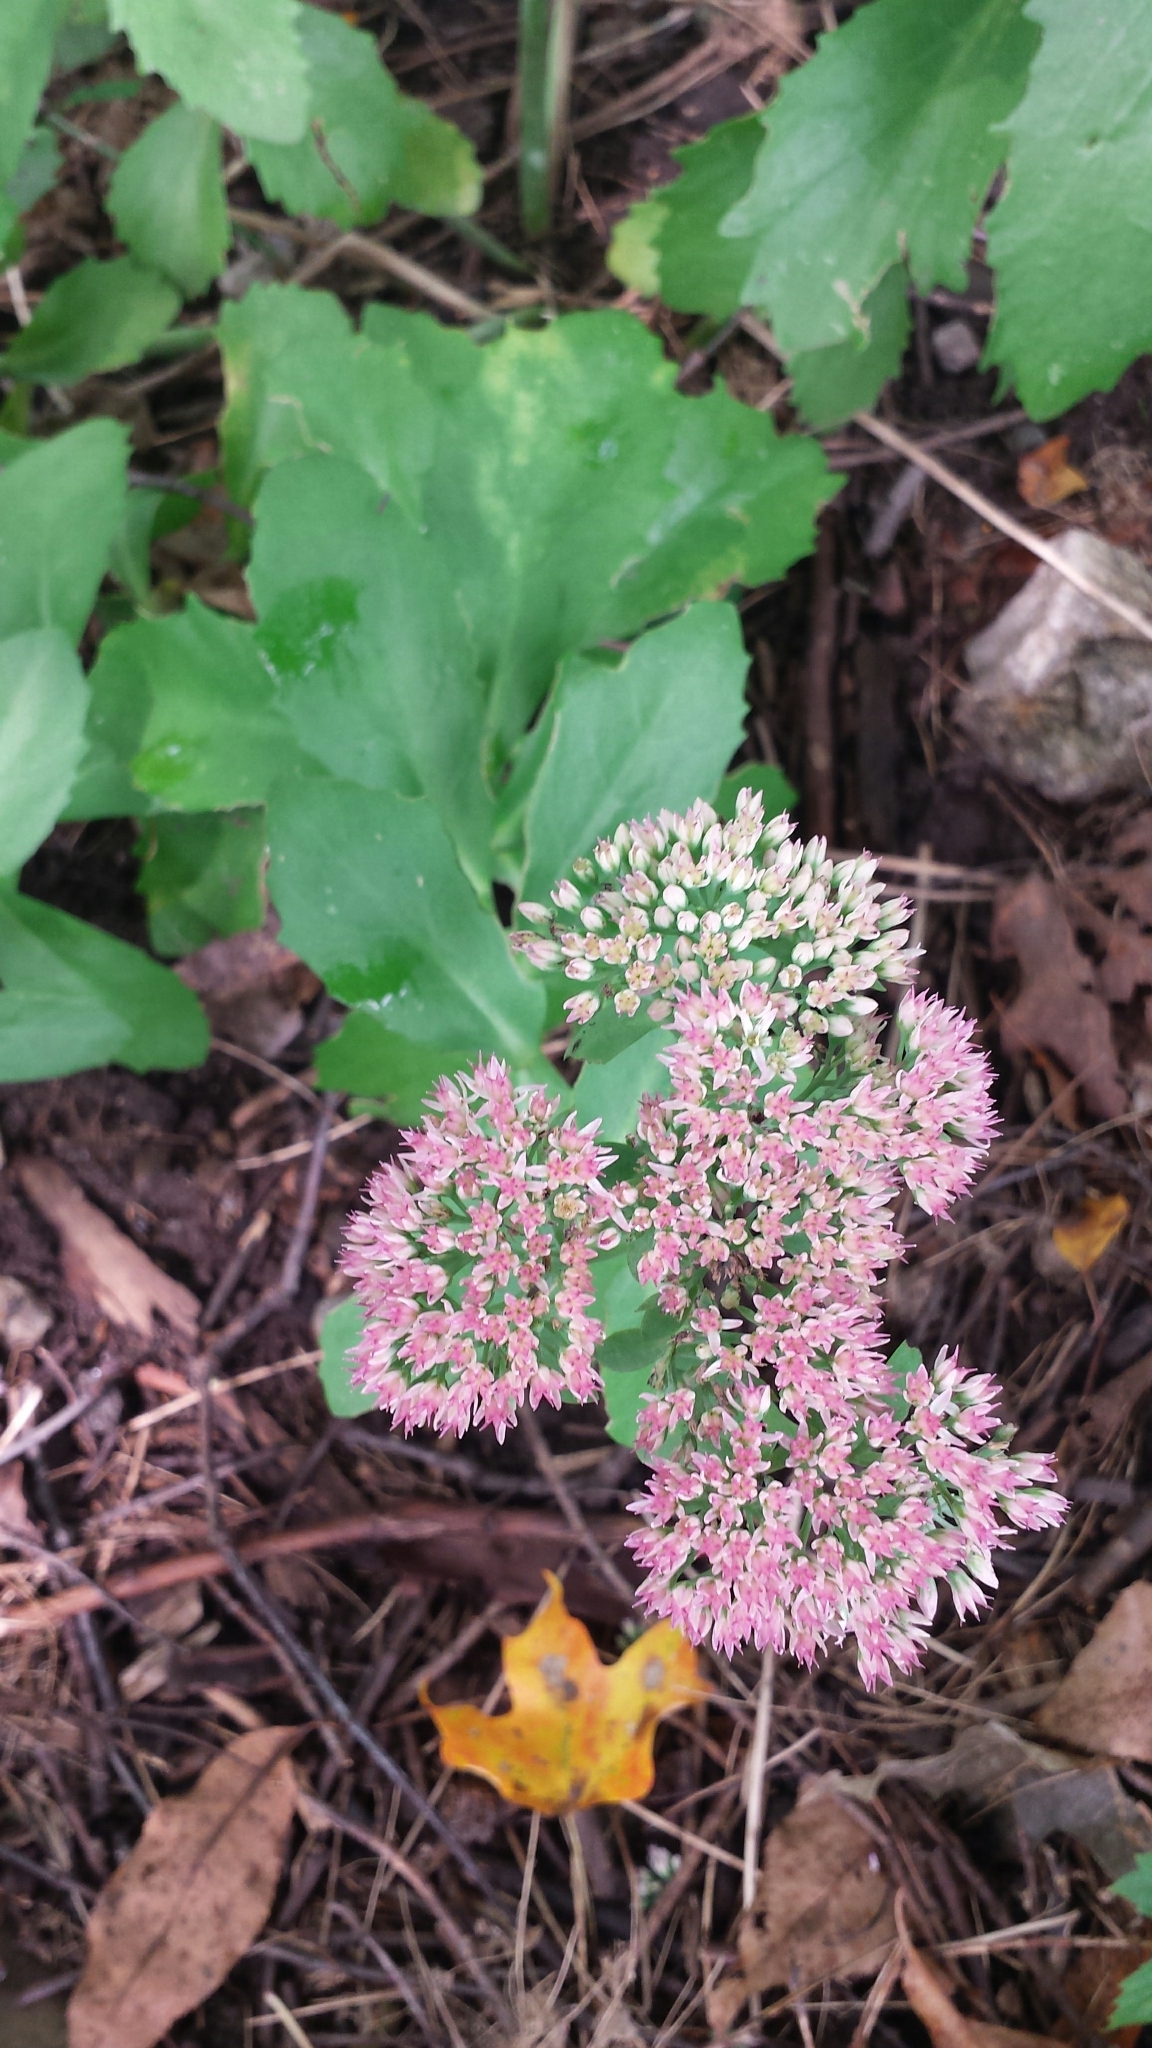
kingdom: Plantae
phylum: Tracheophyta
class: Magnoliopsida
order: Saxifragales
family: Crassulaceae
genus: Hylotelephium
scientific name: Hylotelephium
